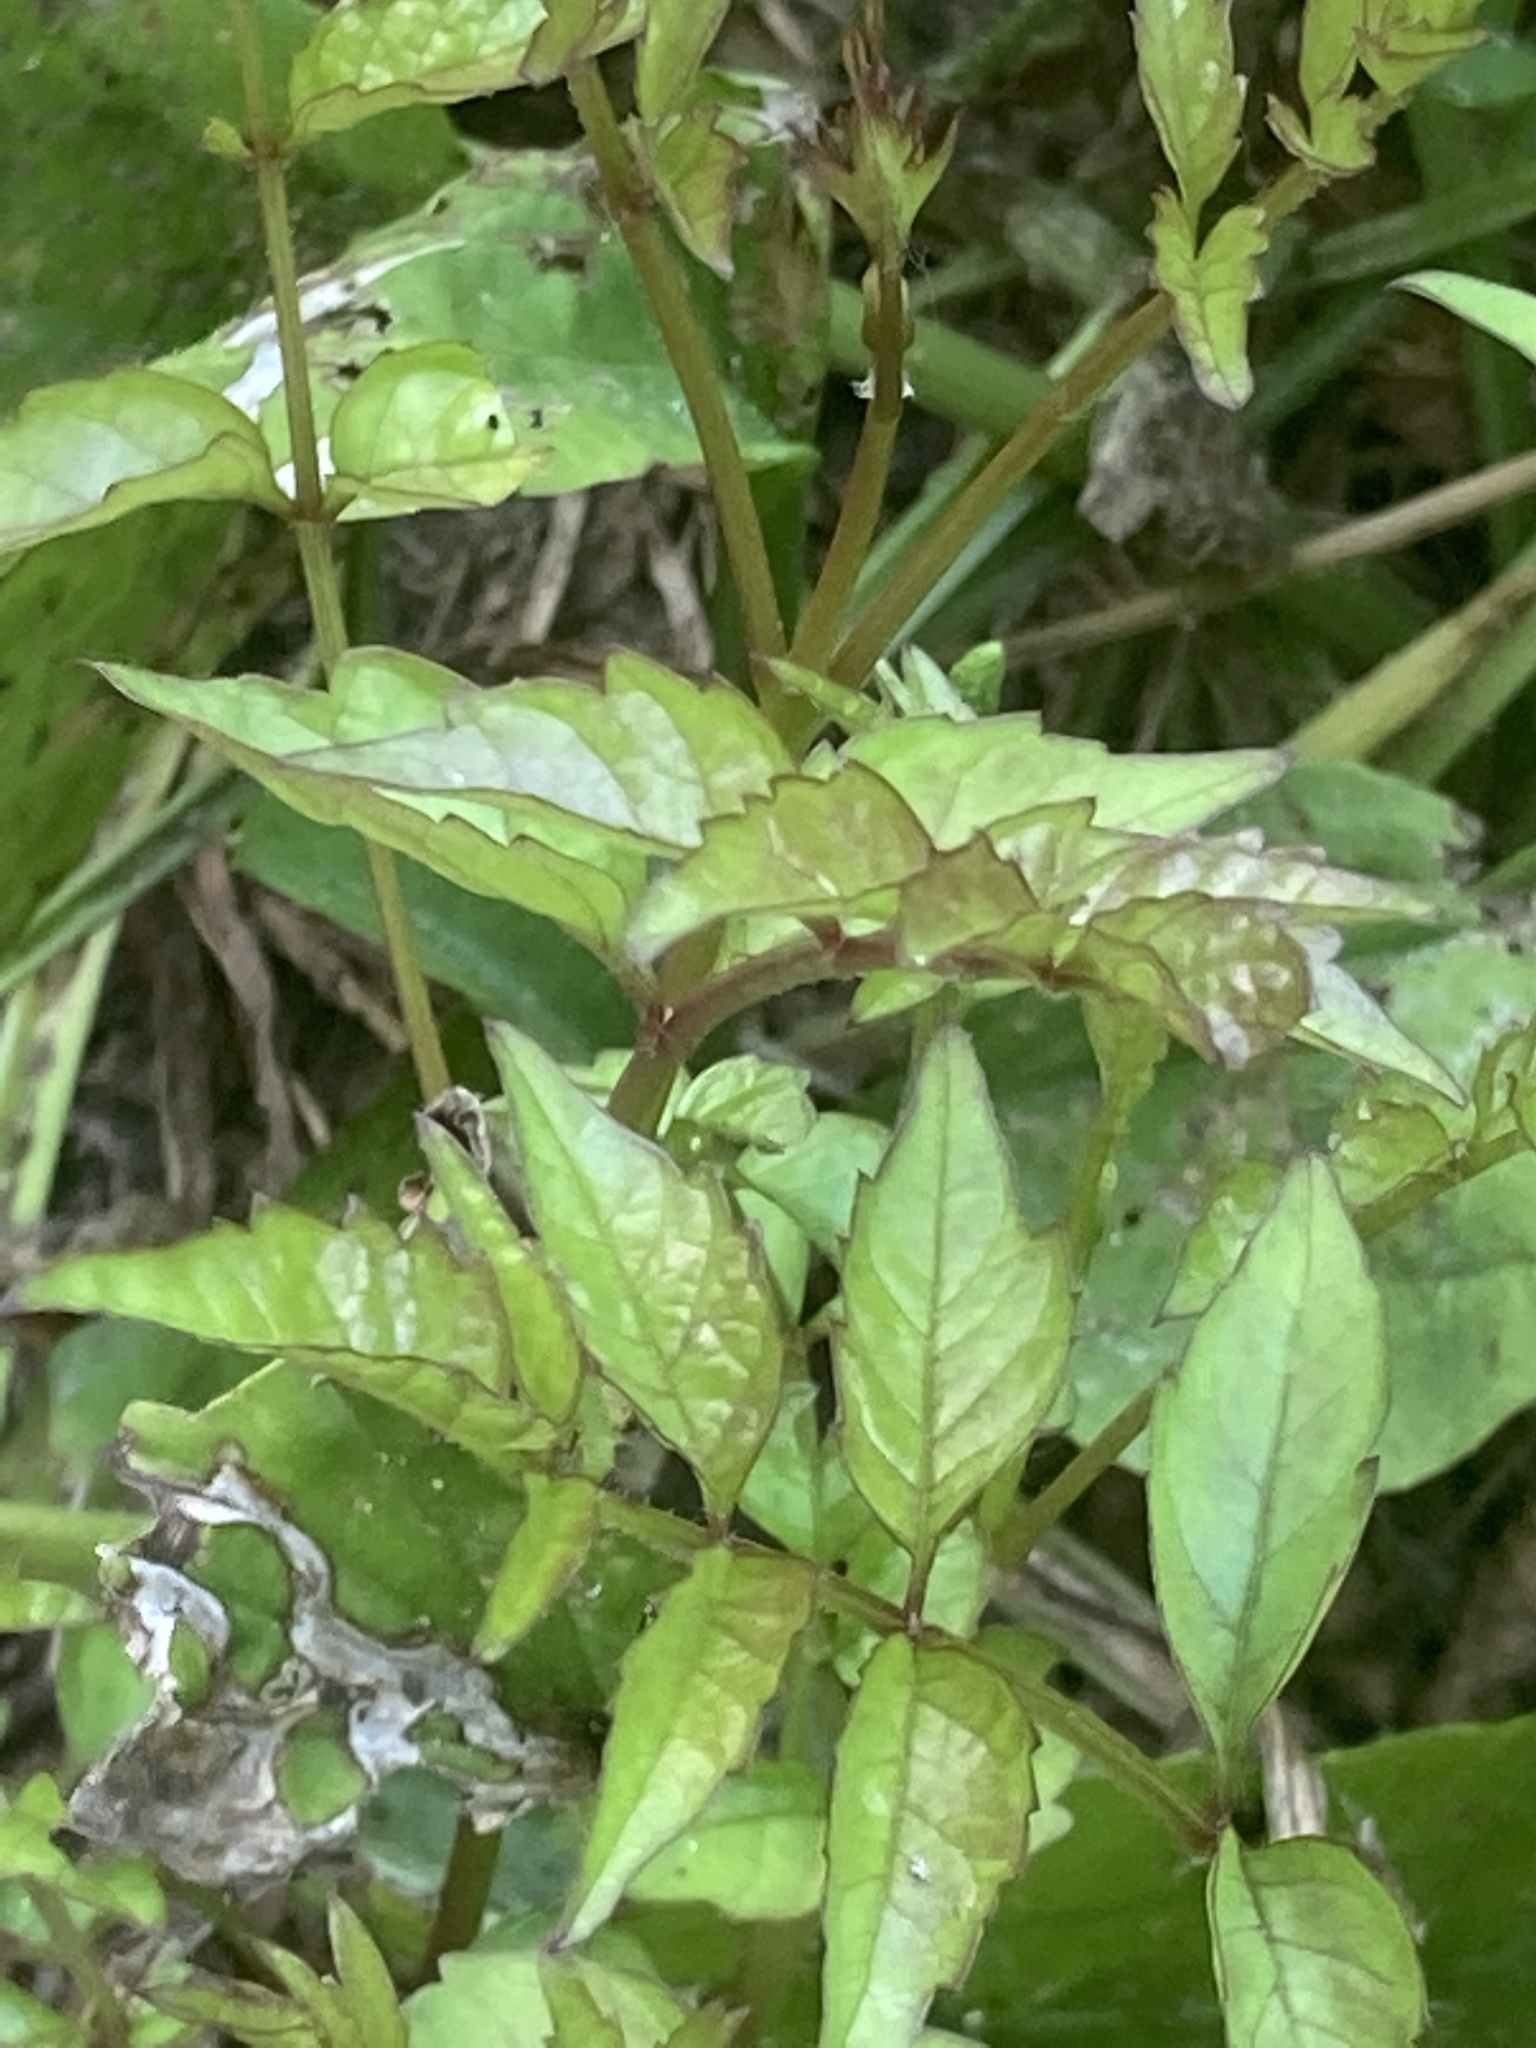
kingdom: Plantae
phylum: Tracheophyta
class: Magnoliopsida
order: Lamiales
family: Bignoniaceae
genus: Campsis
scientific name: Campsis radicans
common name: Trumpet-creeper
